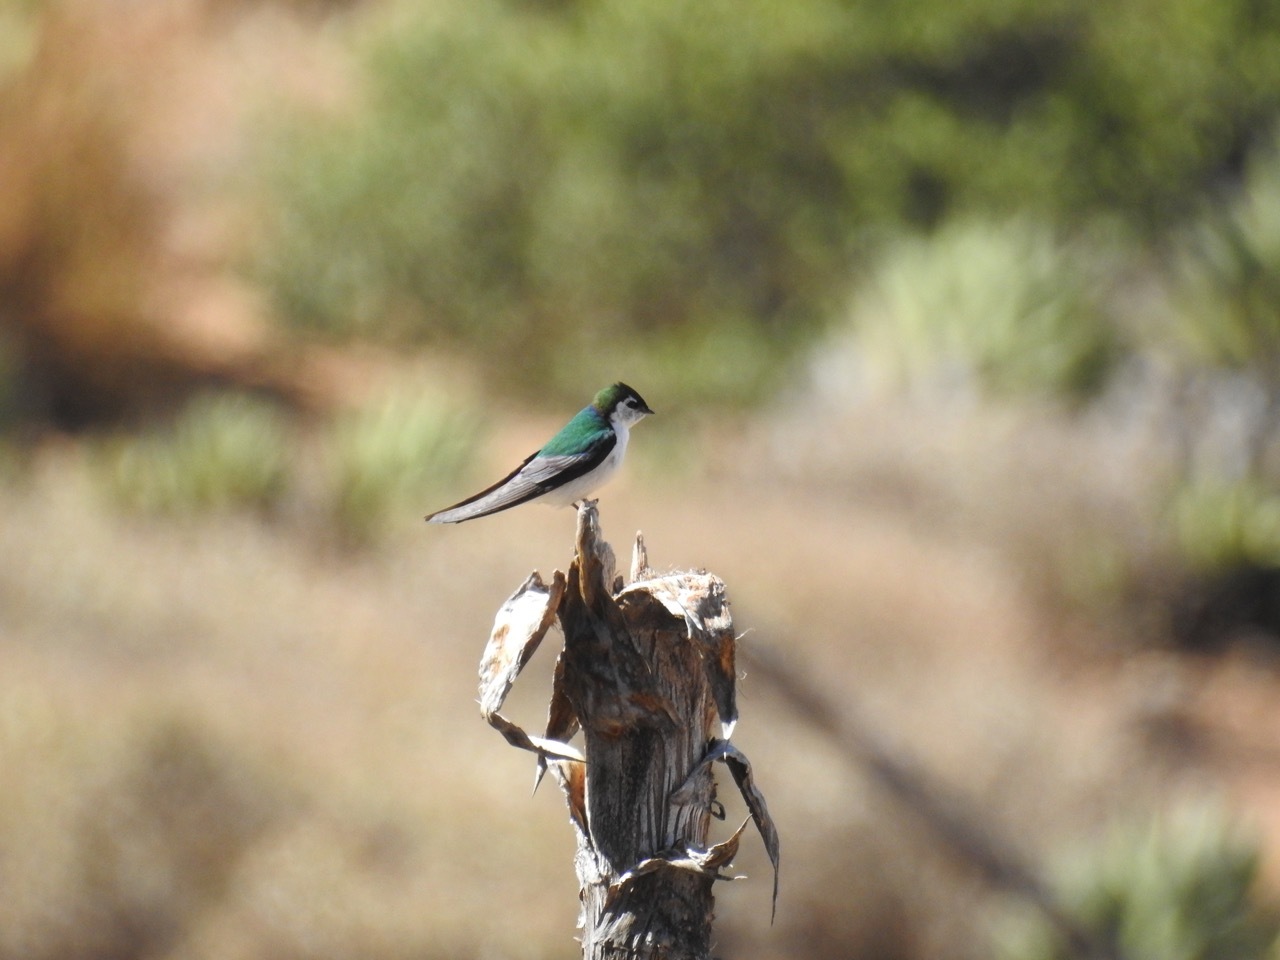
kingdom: Animalia
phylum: Chordata
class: Aves
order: Passeriformes
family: Hirundinidae
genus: Tachycineta
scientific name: Tachycineta thalassina
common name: Violet-green swallow
